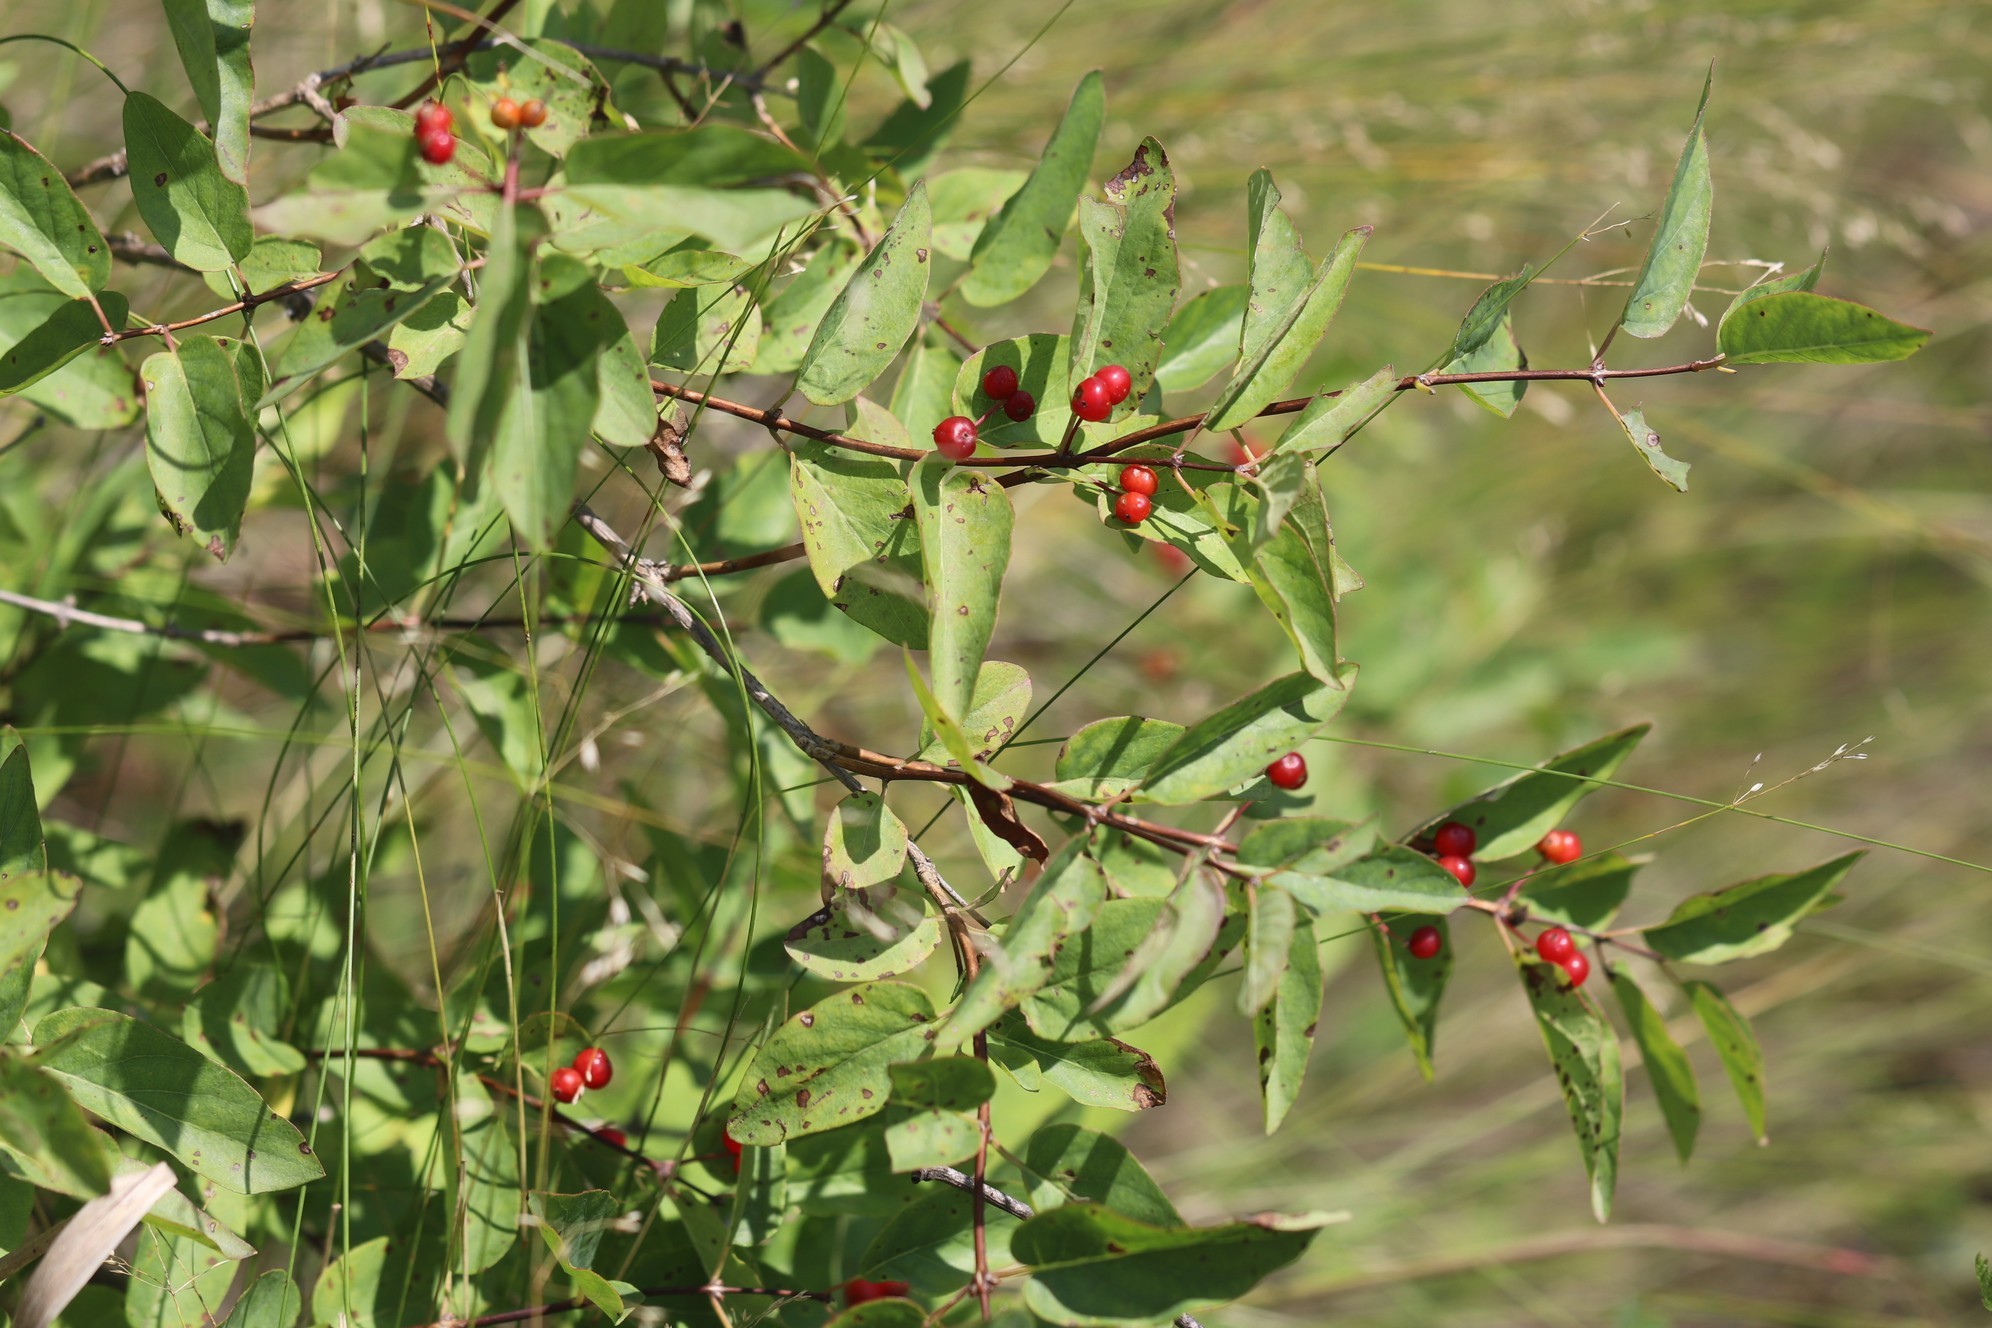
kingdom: Plantae
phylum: Tracheophyta
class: Magnoliopsida
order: Dipsacales
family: Caprifoliaceae
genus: Lonicera
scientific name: Lonicera tatarica
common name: Tatarian honeysuckle
